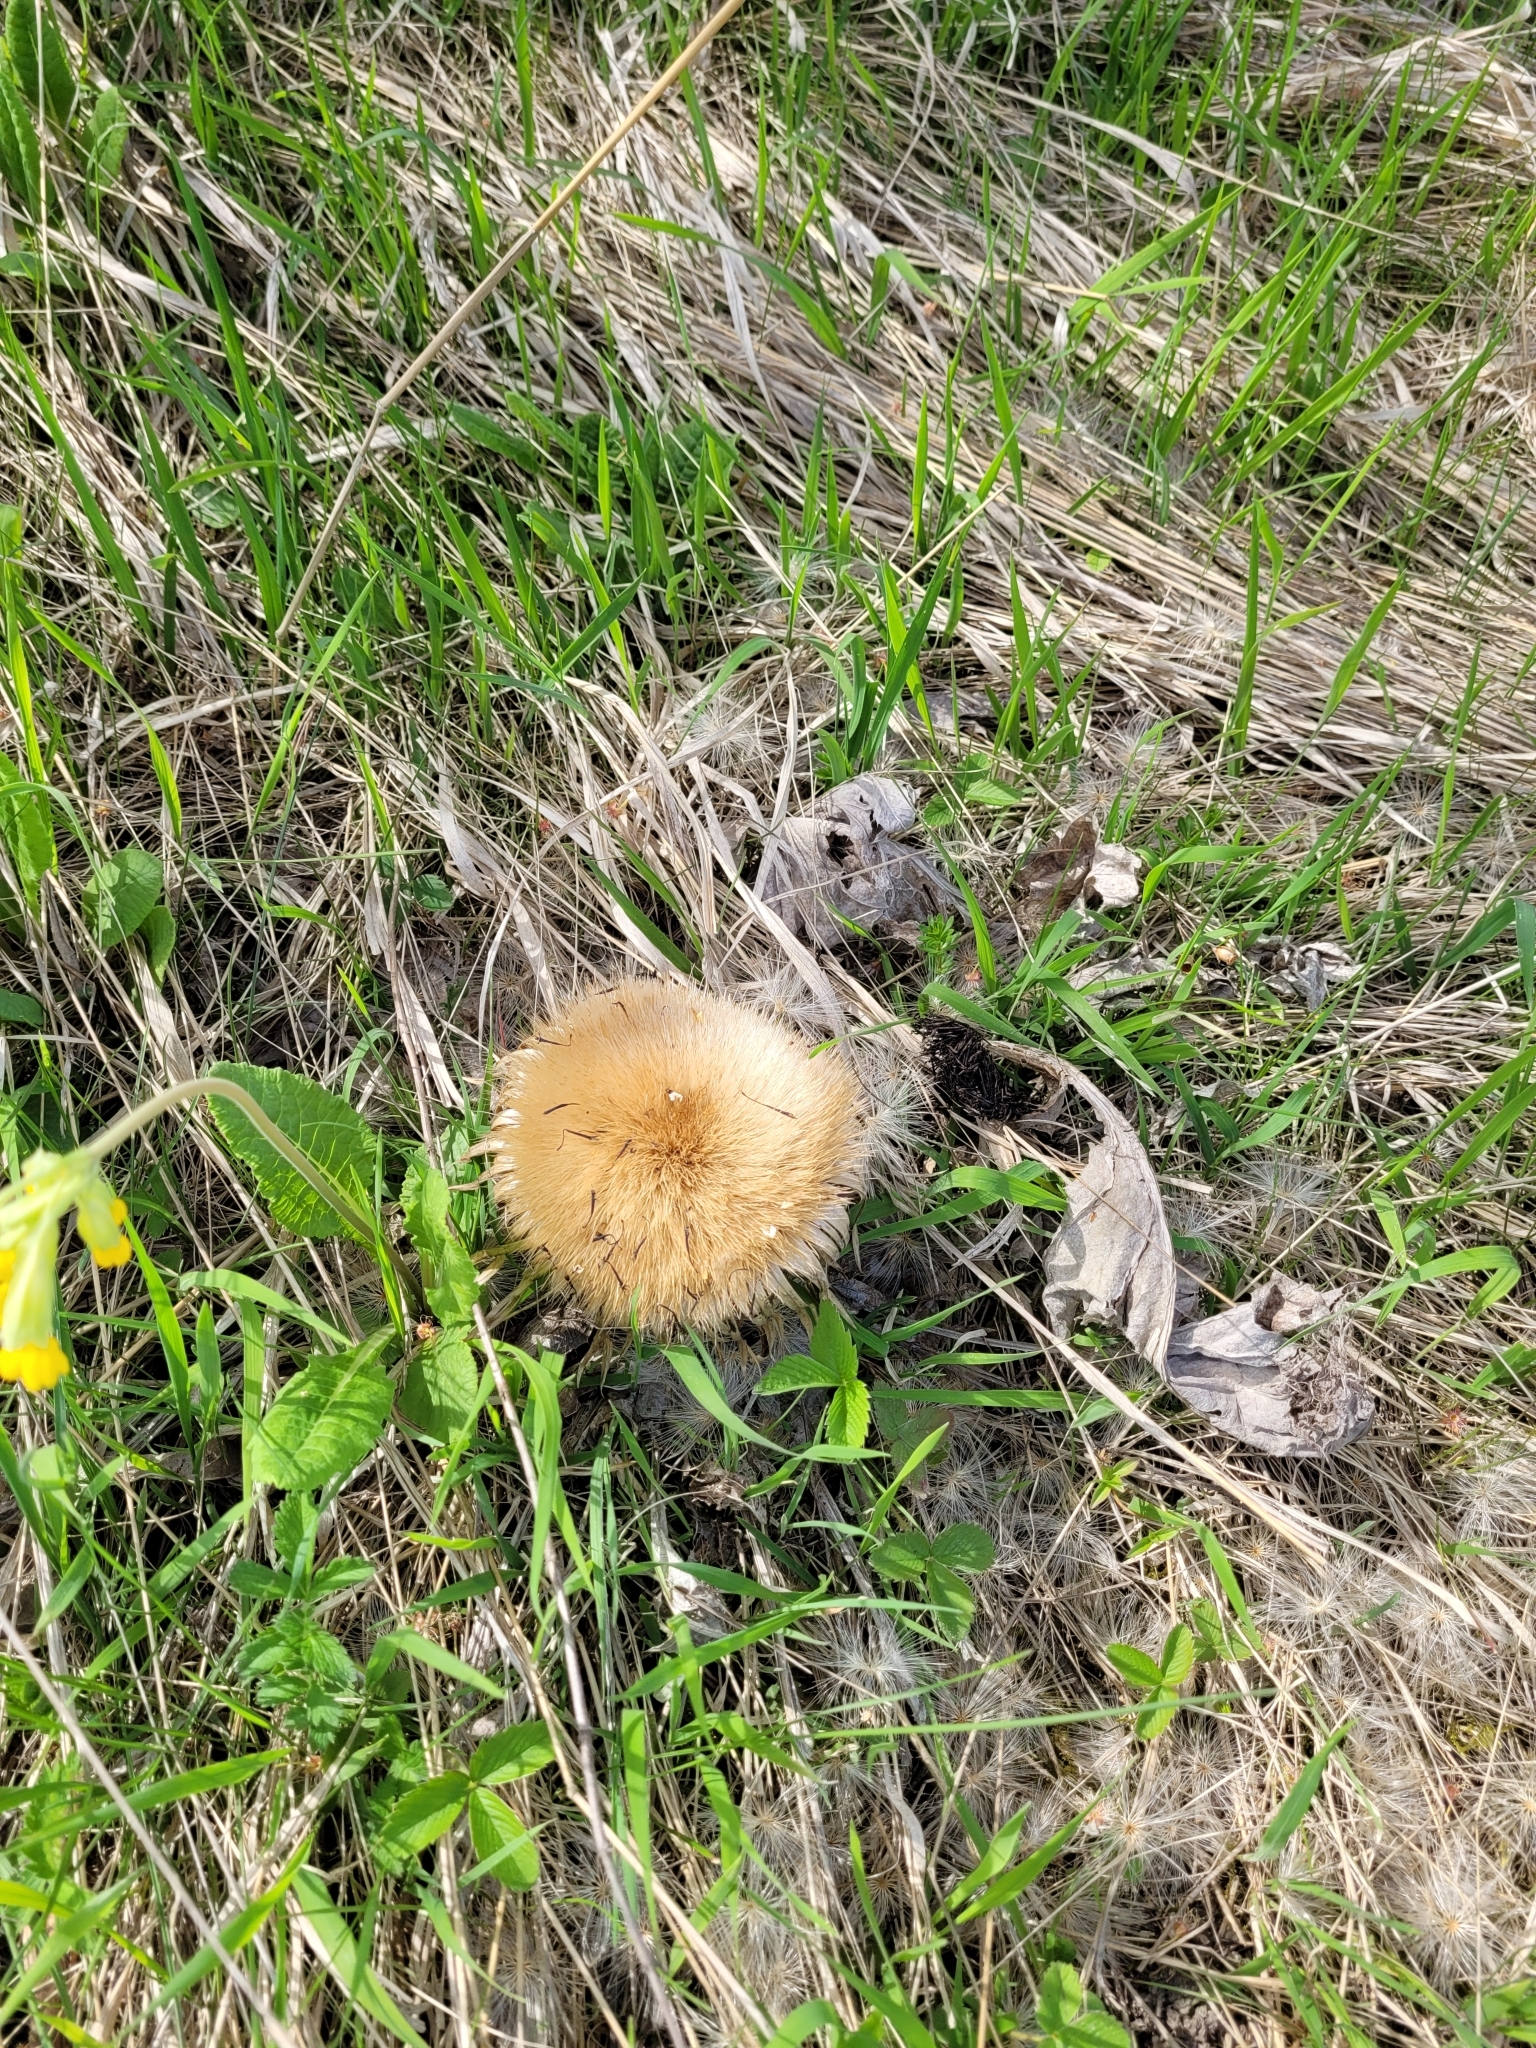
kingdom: Plantae
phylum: Tracheophyta
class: Magnoliopsida
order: Asterales
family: Asteraceae
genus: Carlina
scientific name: Carlina acanthifolia
